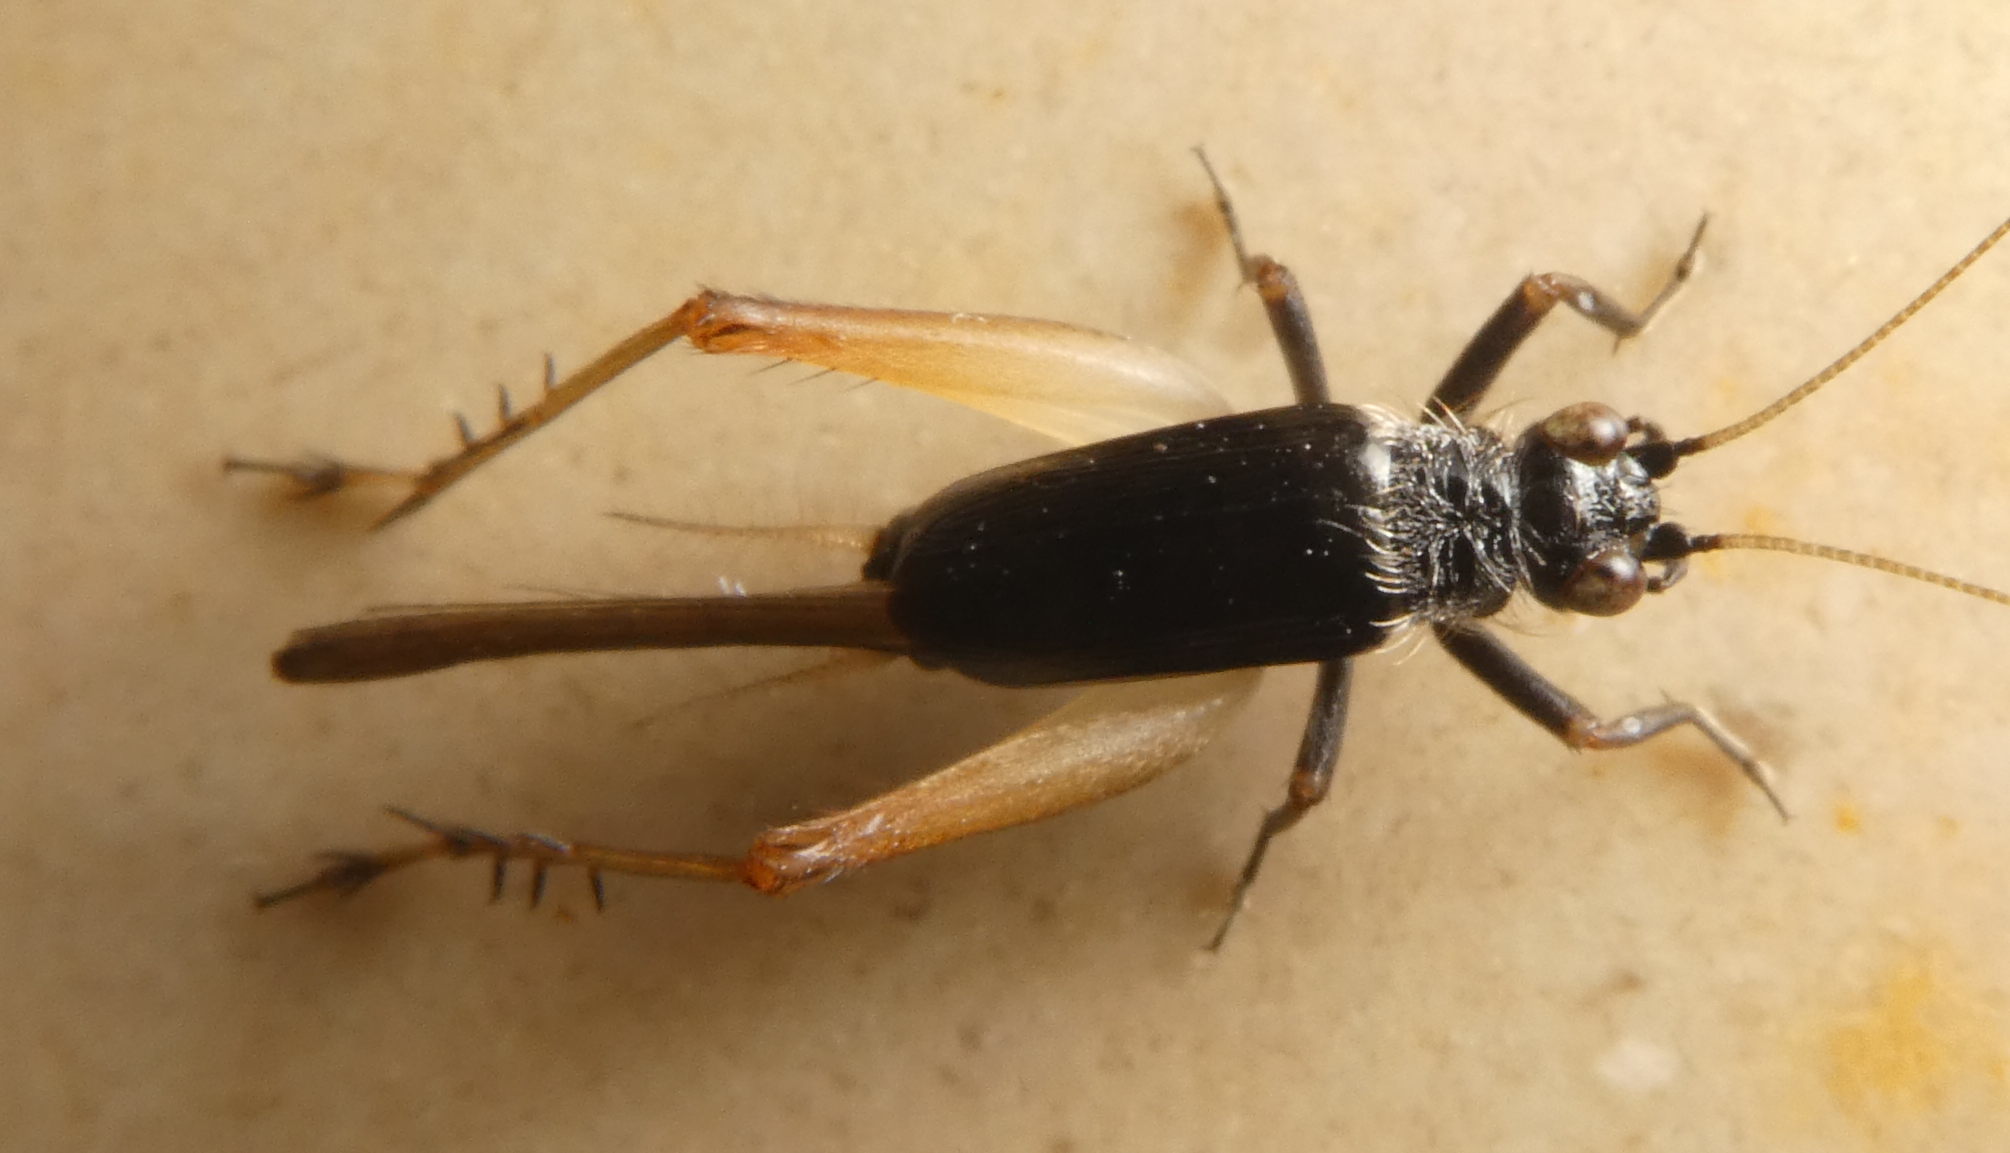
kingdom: Animalia
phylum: Arthropoda
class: Insecta
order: Orthoptera
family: Trigonidiidae
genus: Trigonidium
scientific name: Trigonidium cicindeloides
